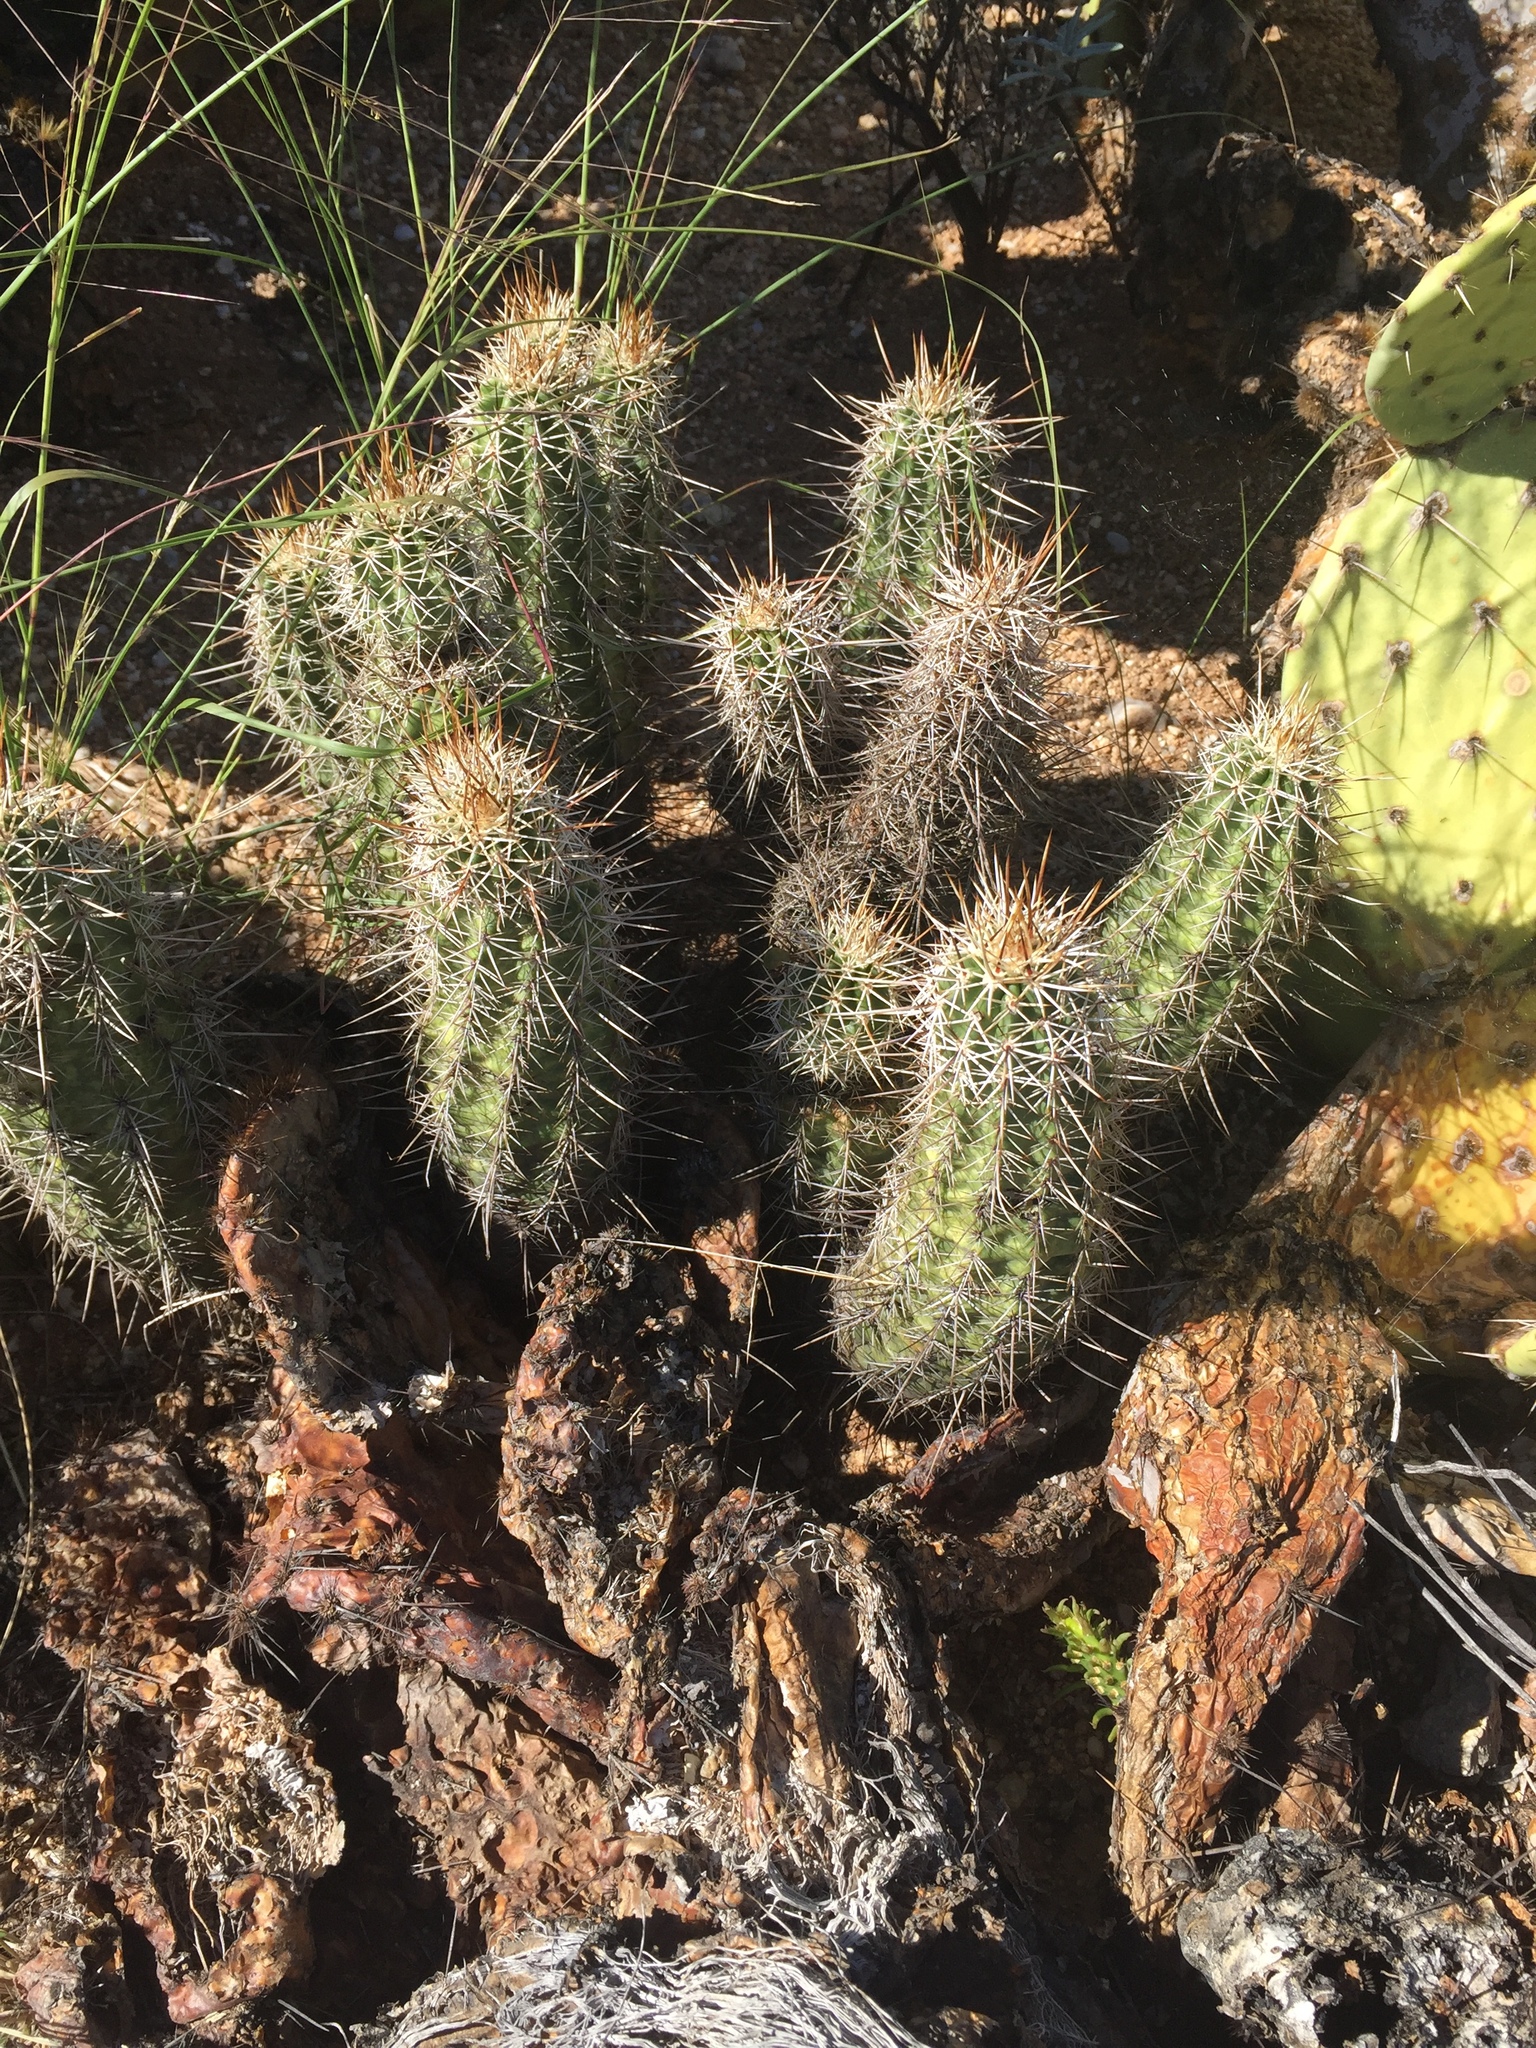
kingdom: Plantae
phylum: Tracheophyta
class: Magnoliopsida
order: Caryophyllales
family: Cactaceae
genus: Echinocereus
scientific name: Echinocereus fasciculatus
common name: Bundle hedgehog
